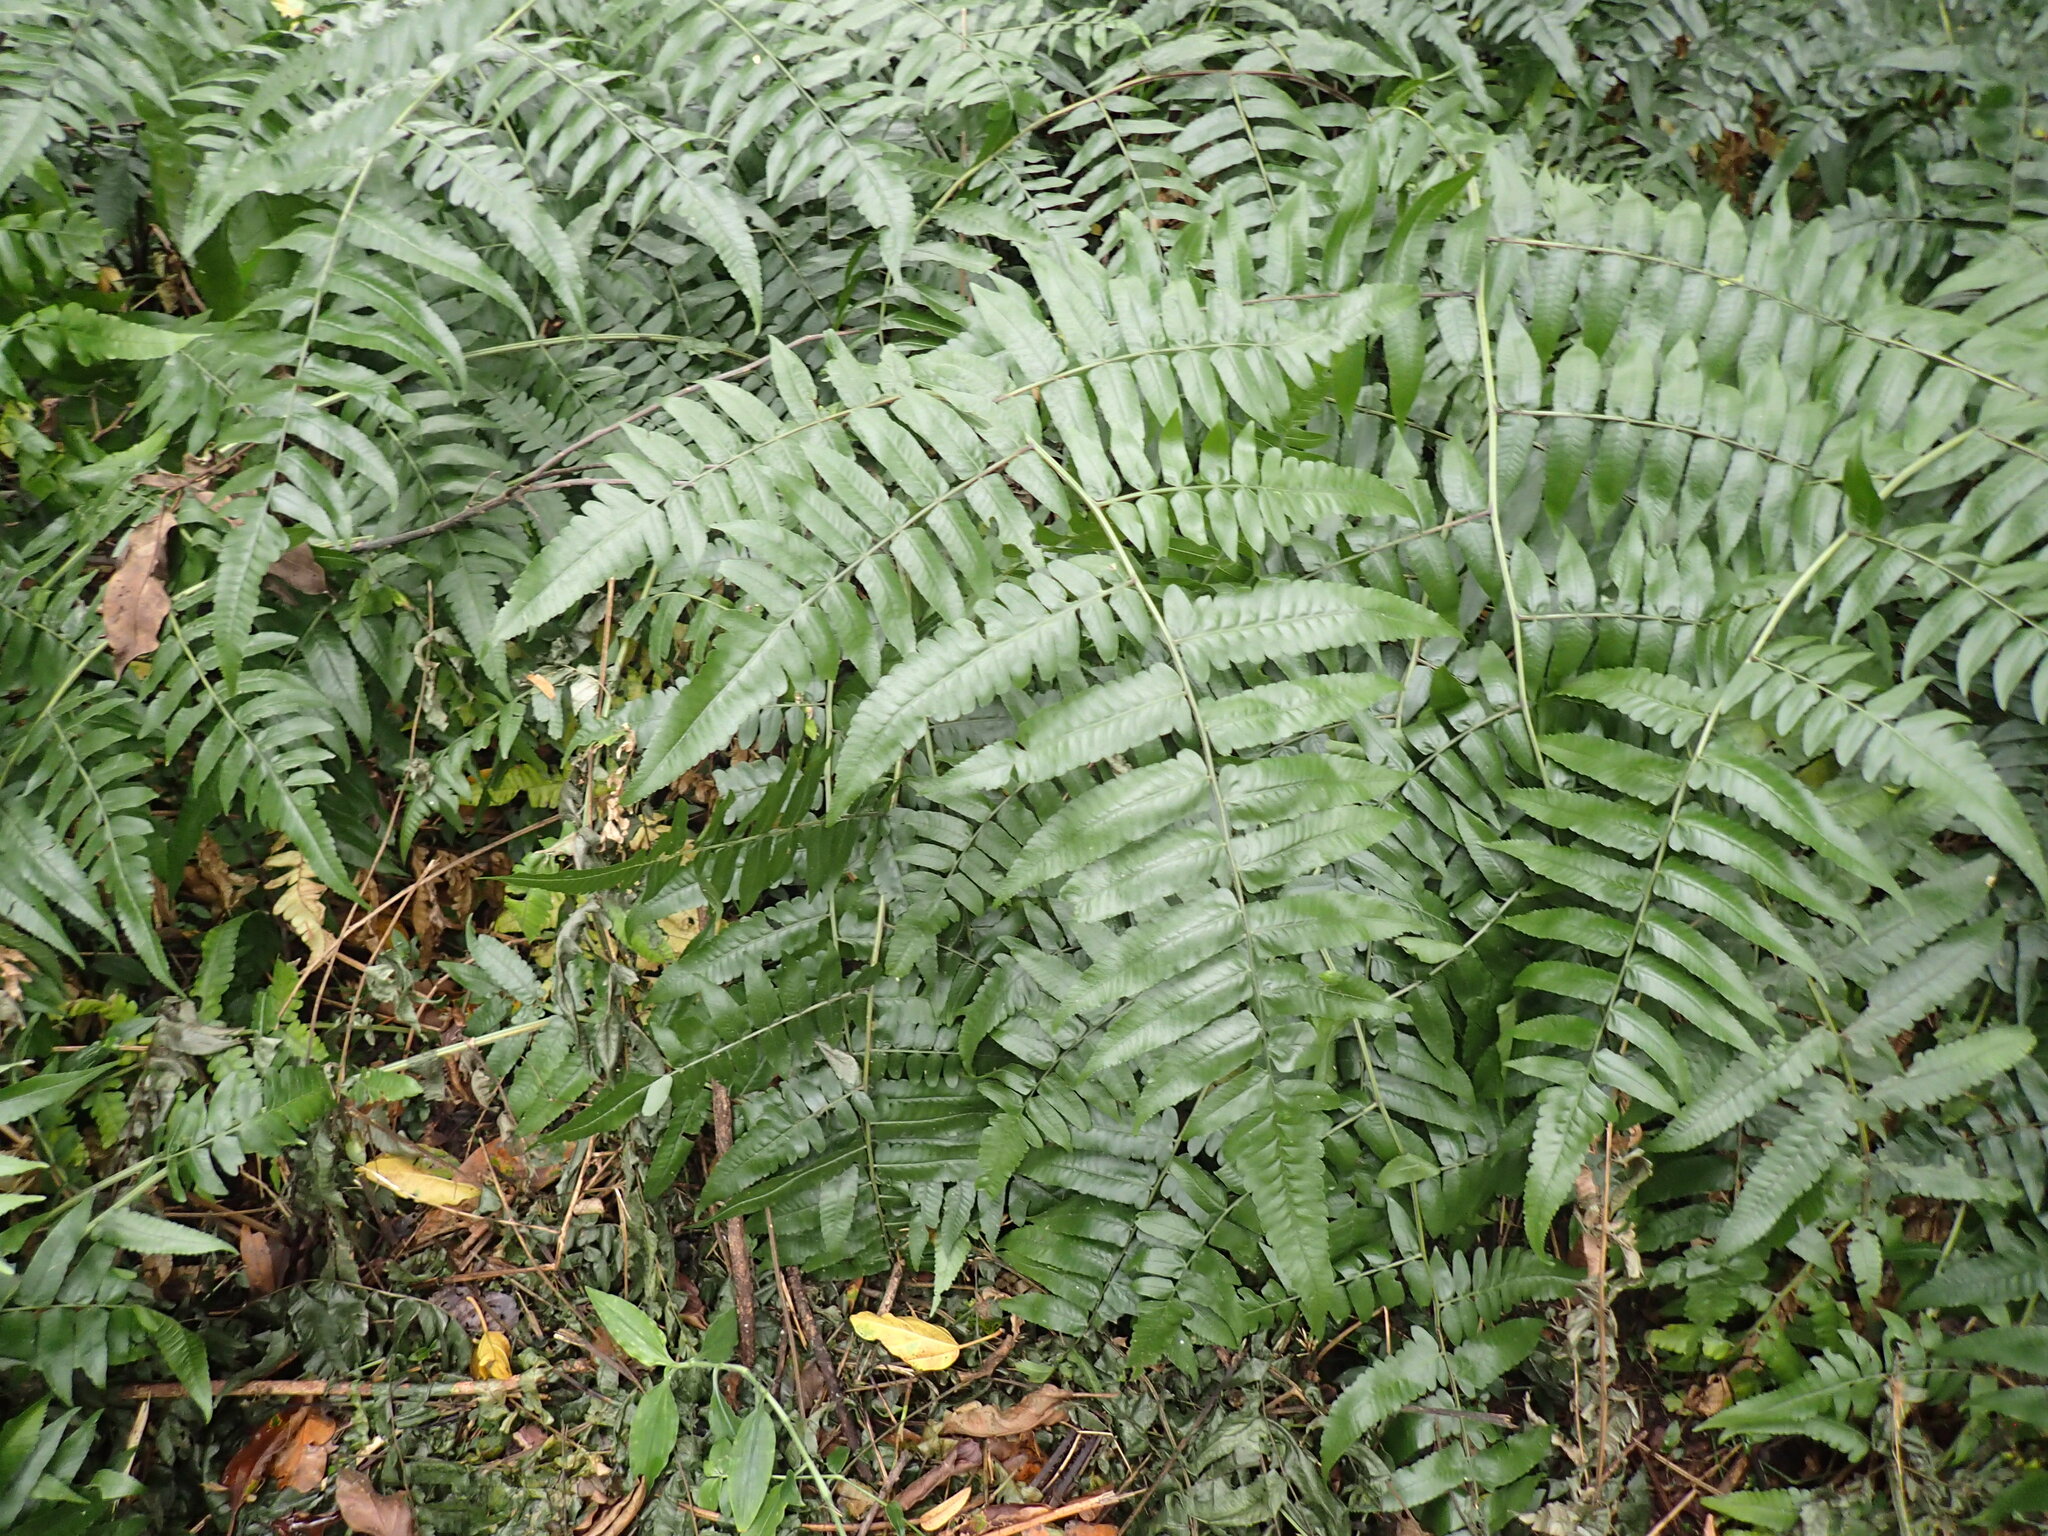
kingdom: Plantae
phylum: Tracheophyta
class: Polypodiopsida
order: Polypodiales
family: Athyriaceae
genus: Diplazium
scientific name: Diplazium esculentum
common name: Vegetable fern
